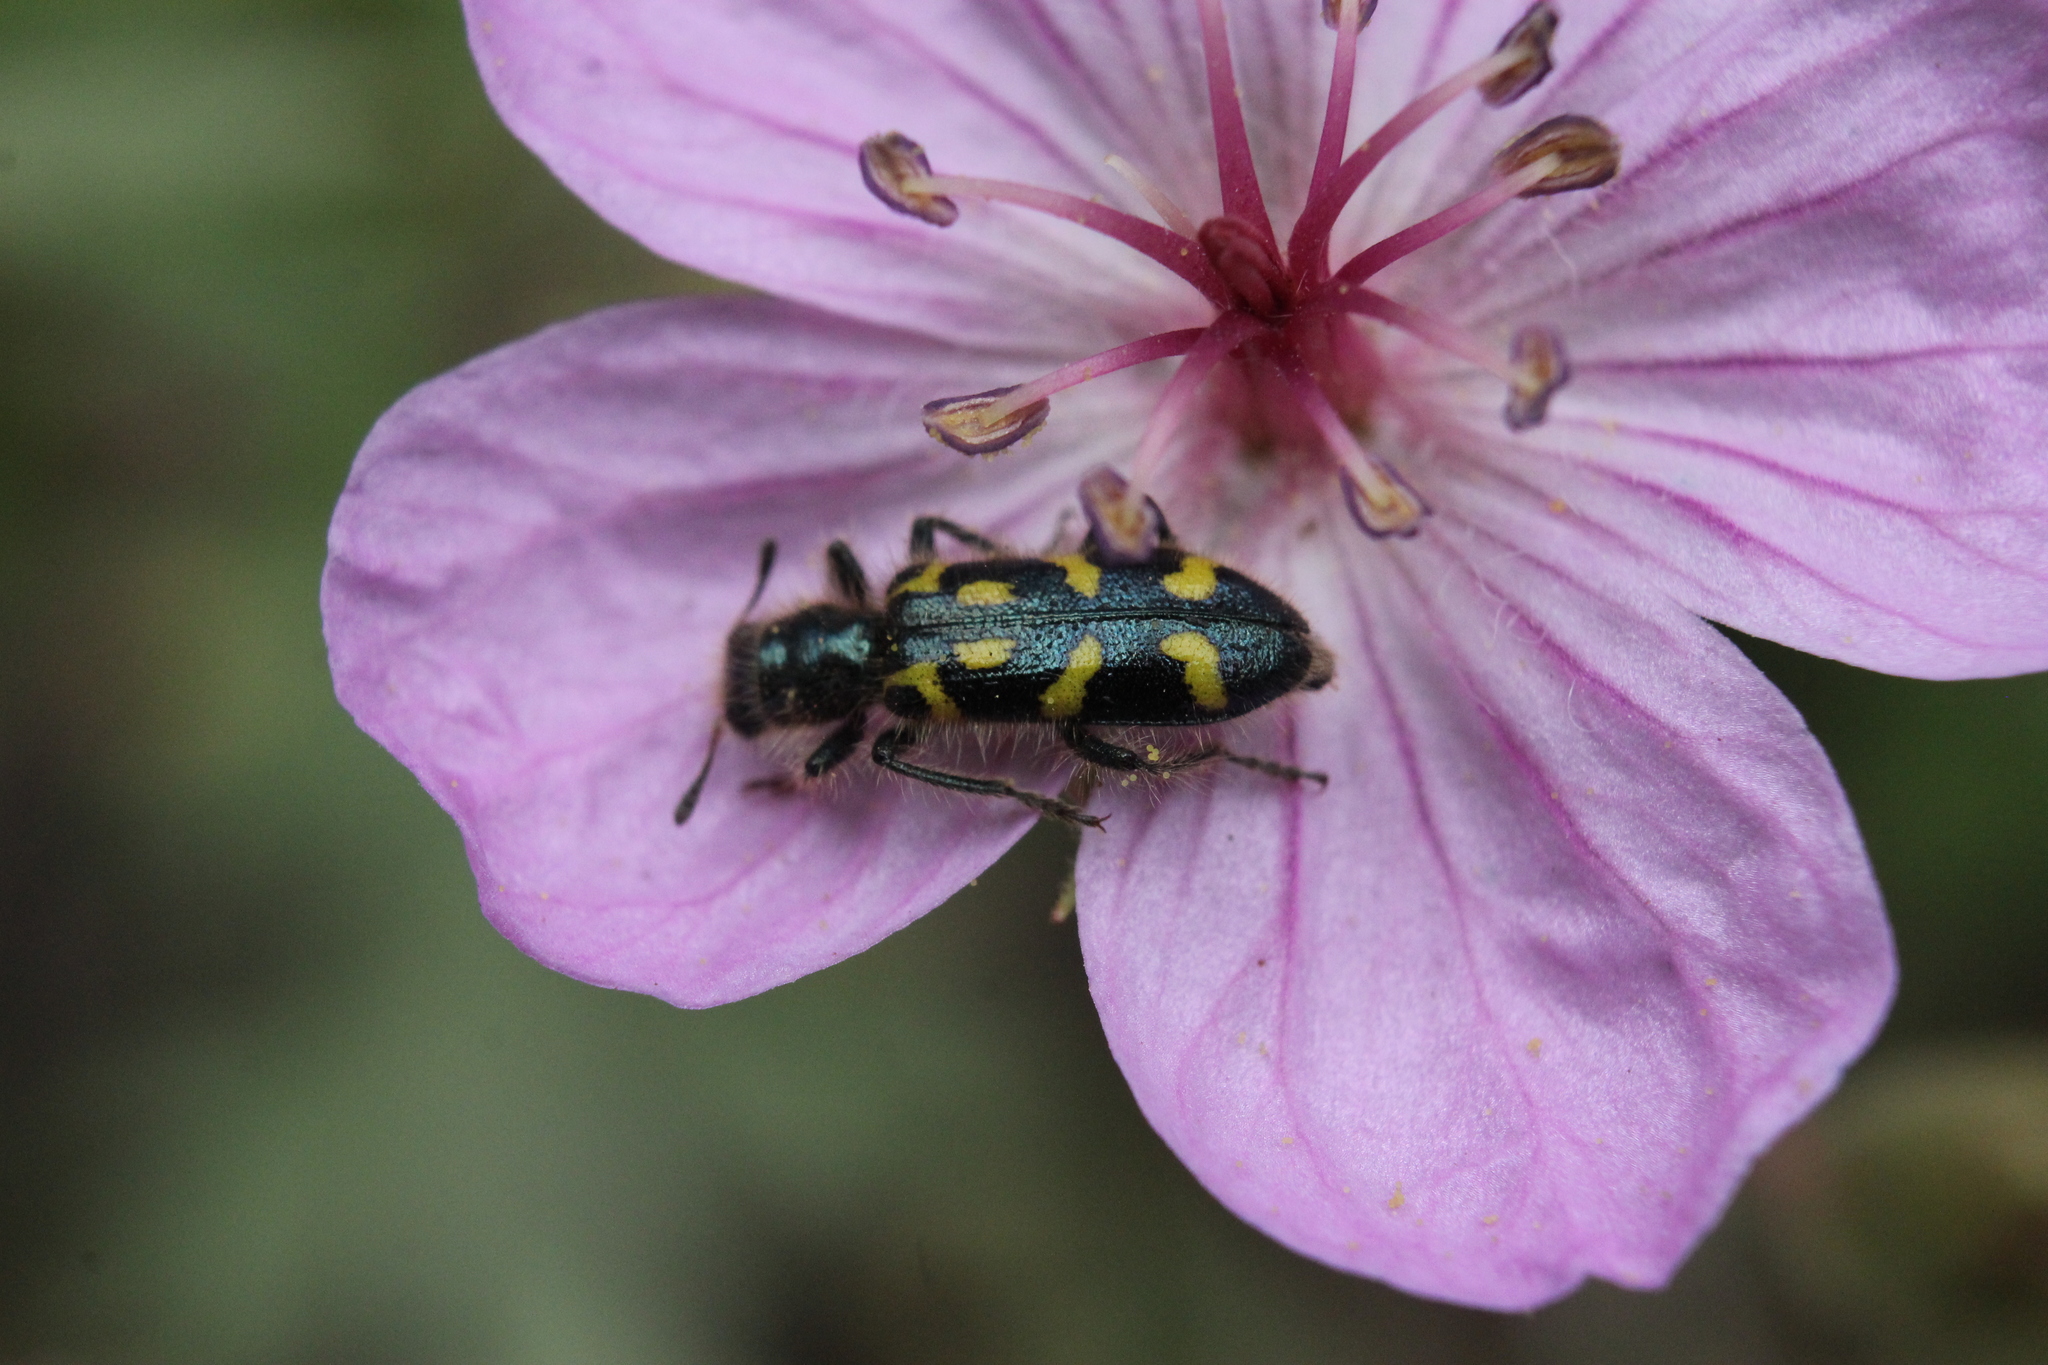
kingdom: Animalia
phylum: Arthropoda
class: Insecta
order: Coleoptera
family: Cleridae
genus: Trichodes
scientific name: Trichodes ornatus
